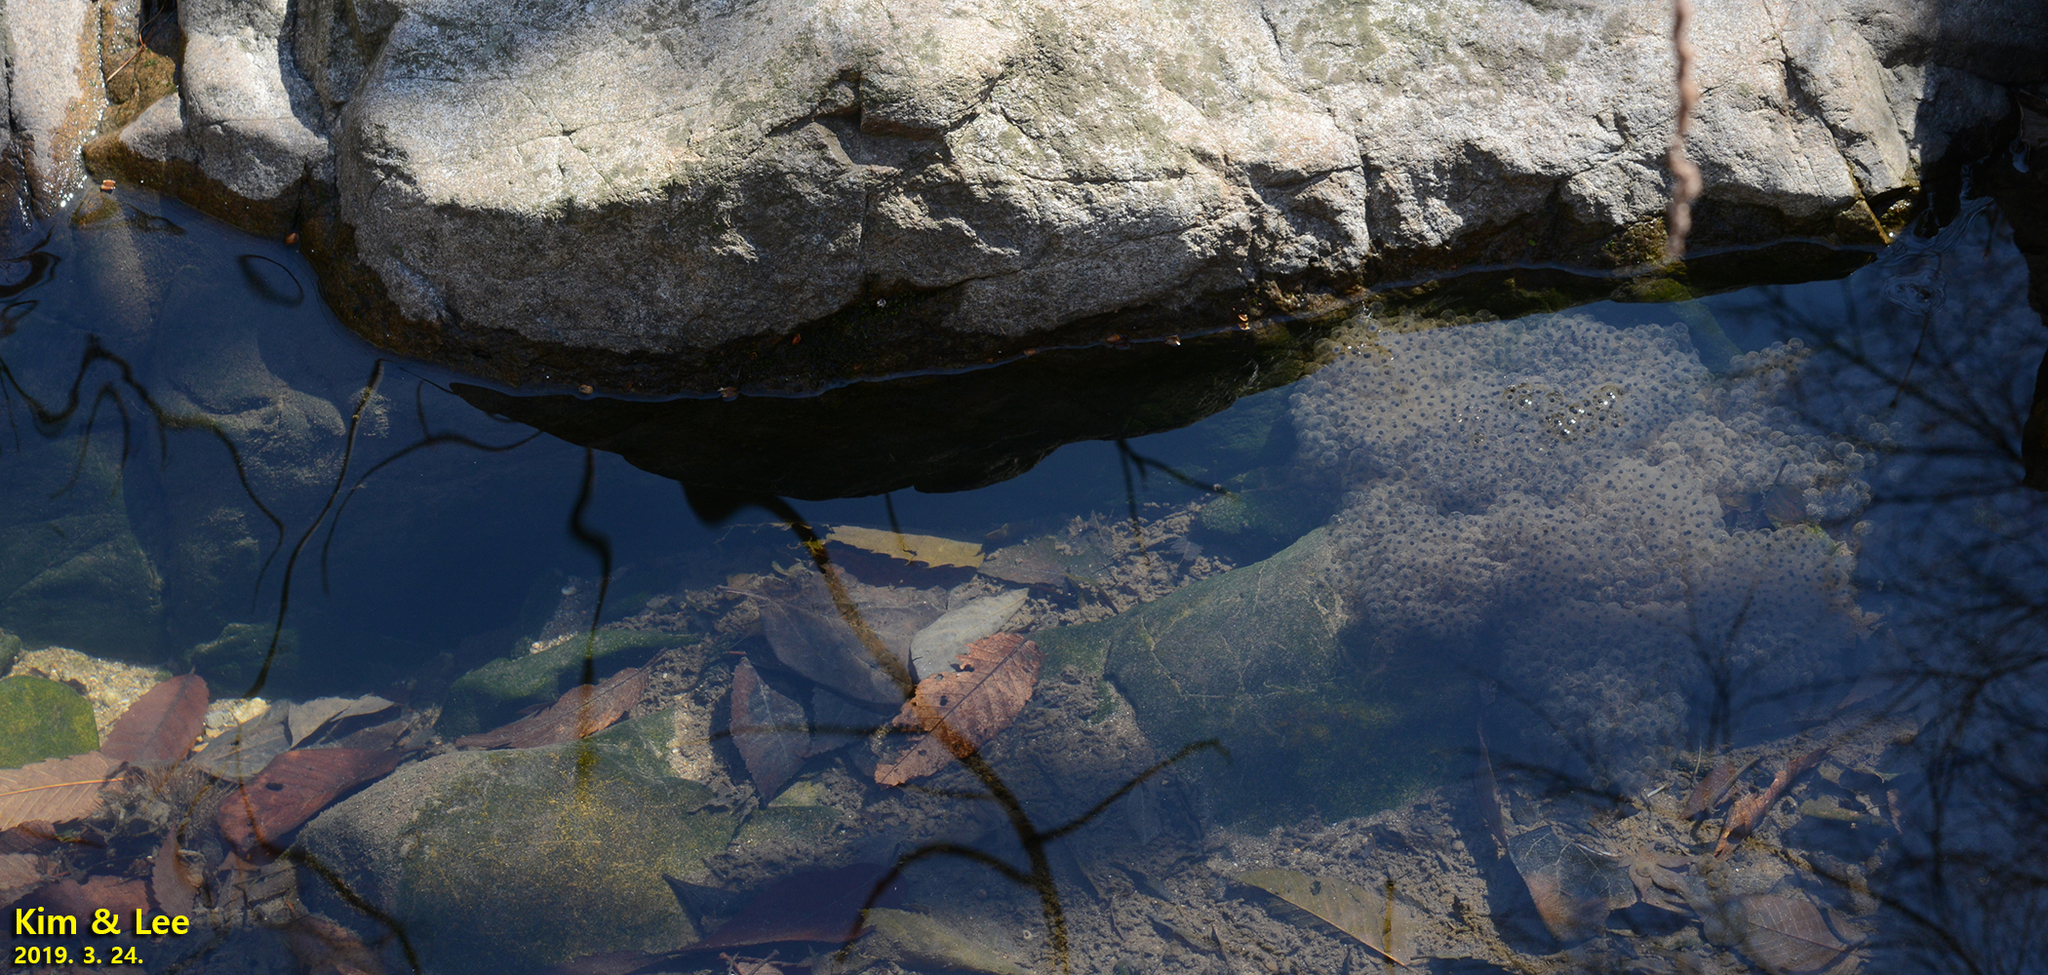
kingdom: Animalia
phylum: Chordata
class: Amphibia
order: Anura
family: Ranidae
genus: Rana
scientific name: Rana huanrenensis
